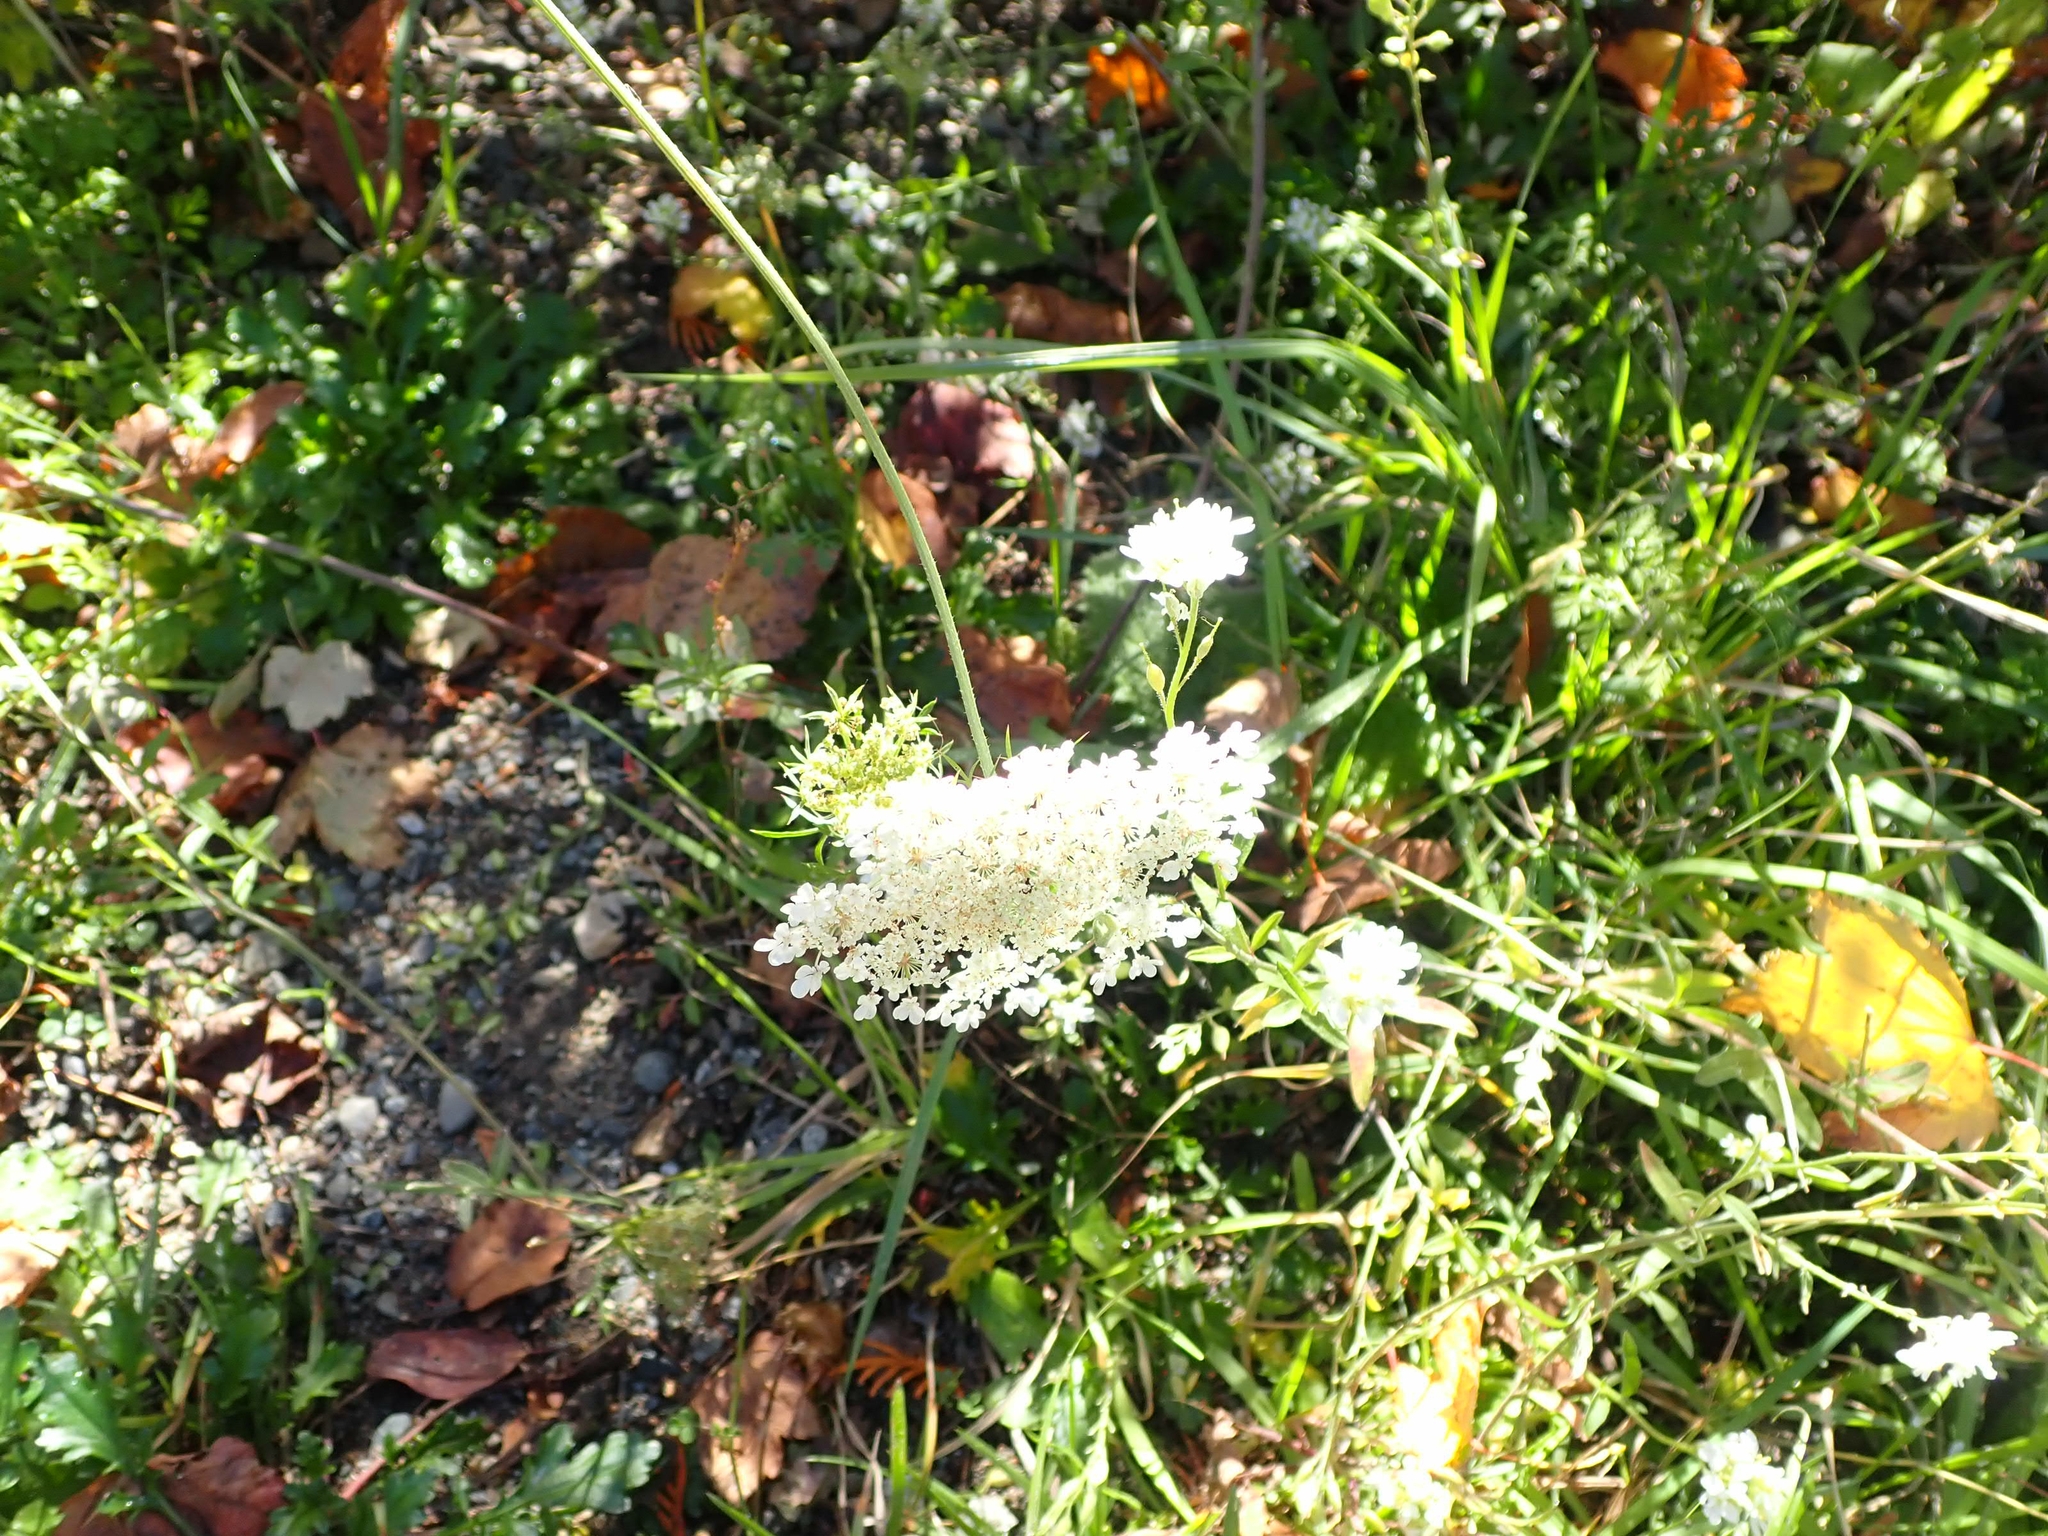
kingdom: Plantae
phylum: Tracheophyta
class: Magnoliopsida
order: Apiales
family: Apiaceae
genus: Daucus
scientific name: Daucus carota
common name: Wild carrot
